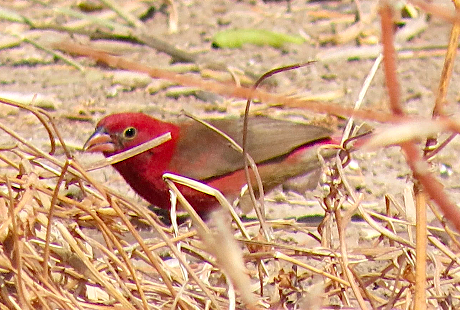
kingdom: Animalia
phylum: Chordata
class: Aves
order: Passeriformes
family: Estrildidae
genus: Lagonosticta
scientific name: Lagonosticta senegala
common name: Red-billed firefinch
